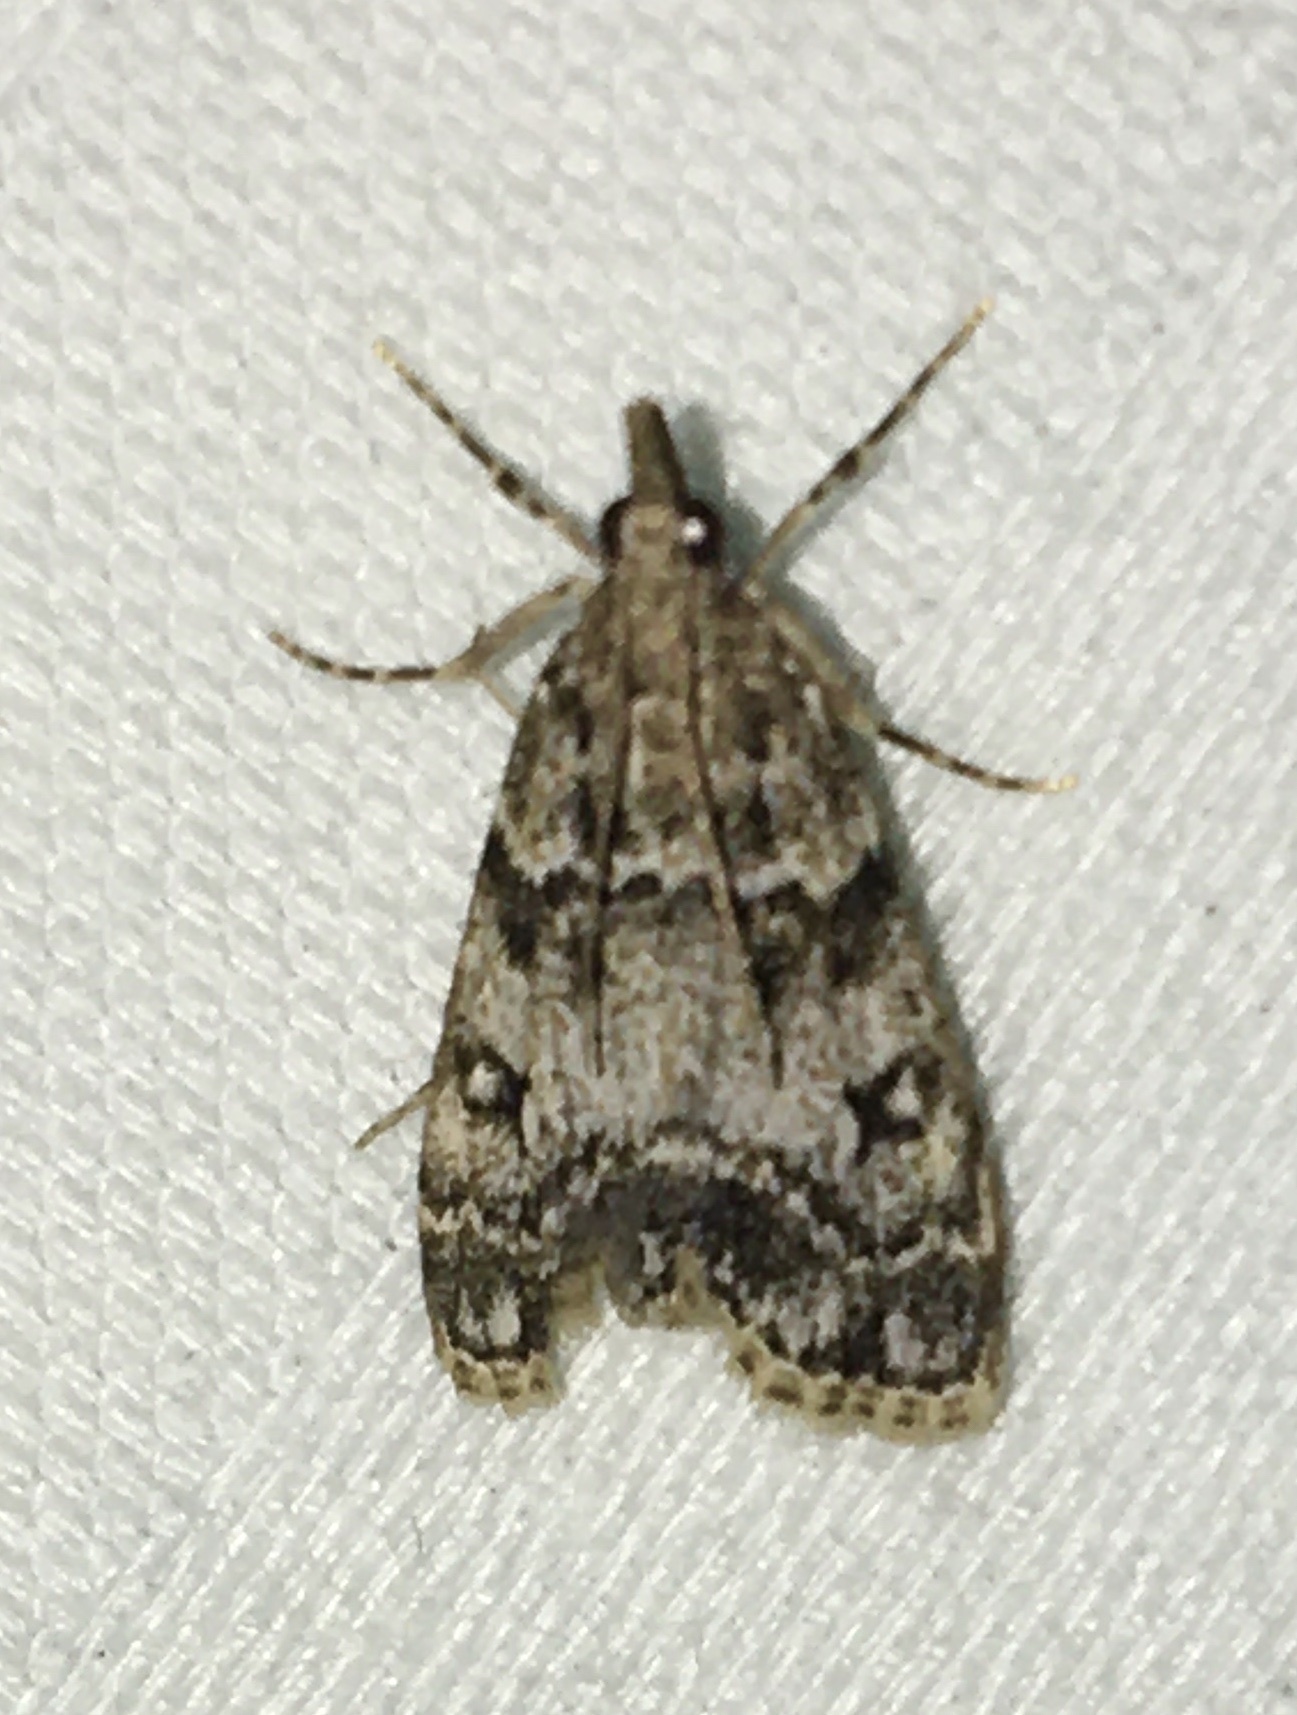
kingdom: Animalia
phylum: Arthropoda
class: Insecta
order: Lepidoptera
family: Crambidae
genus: Eudonia
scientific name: Eudonia lacustrata
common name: Little grey
